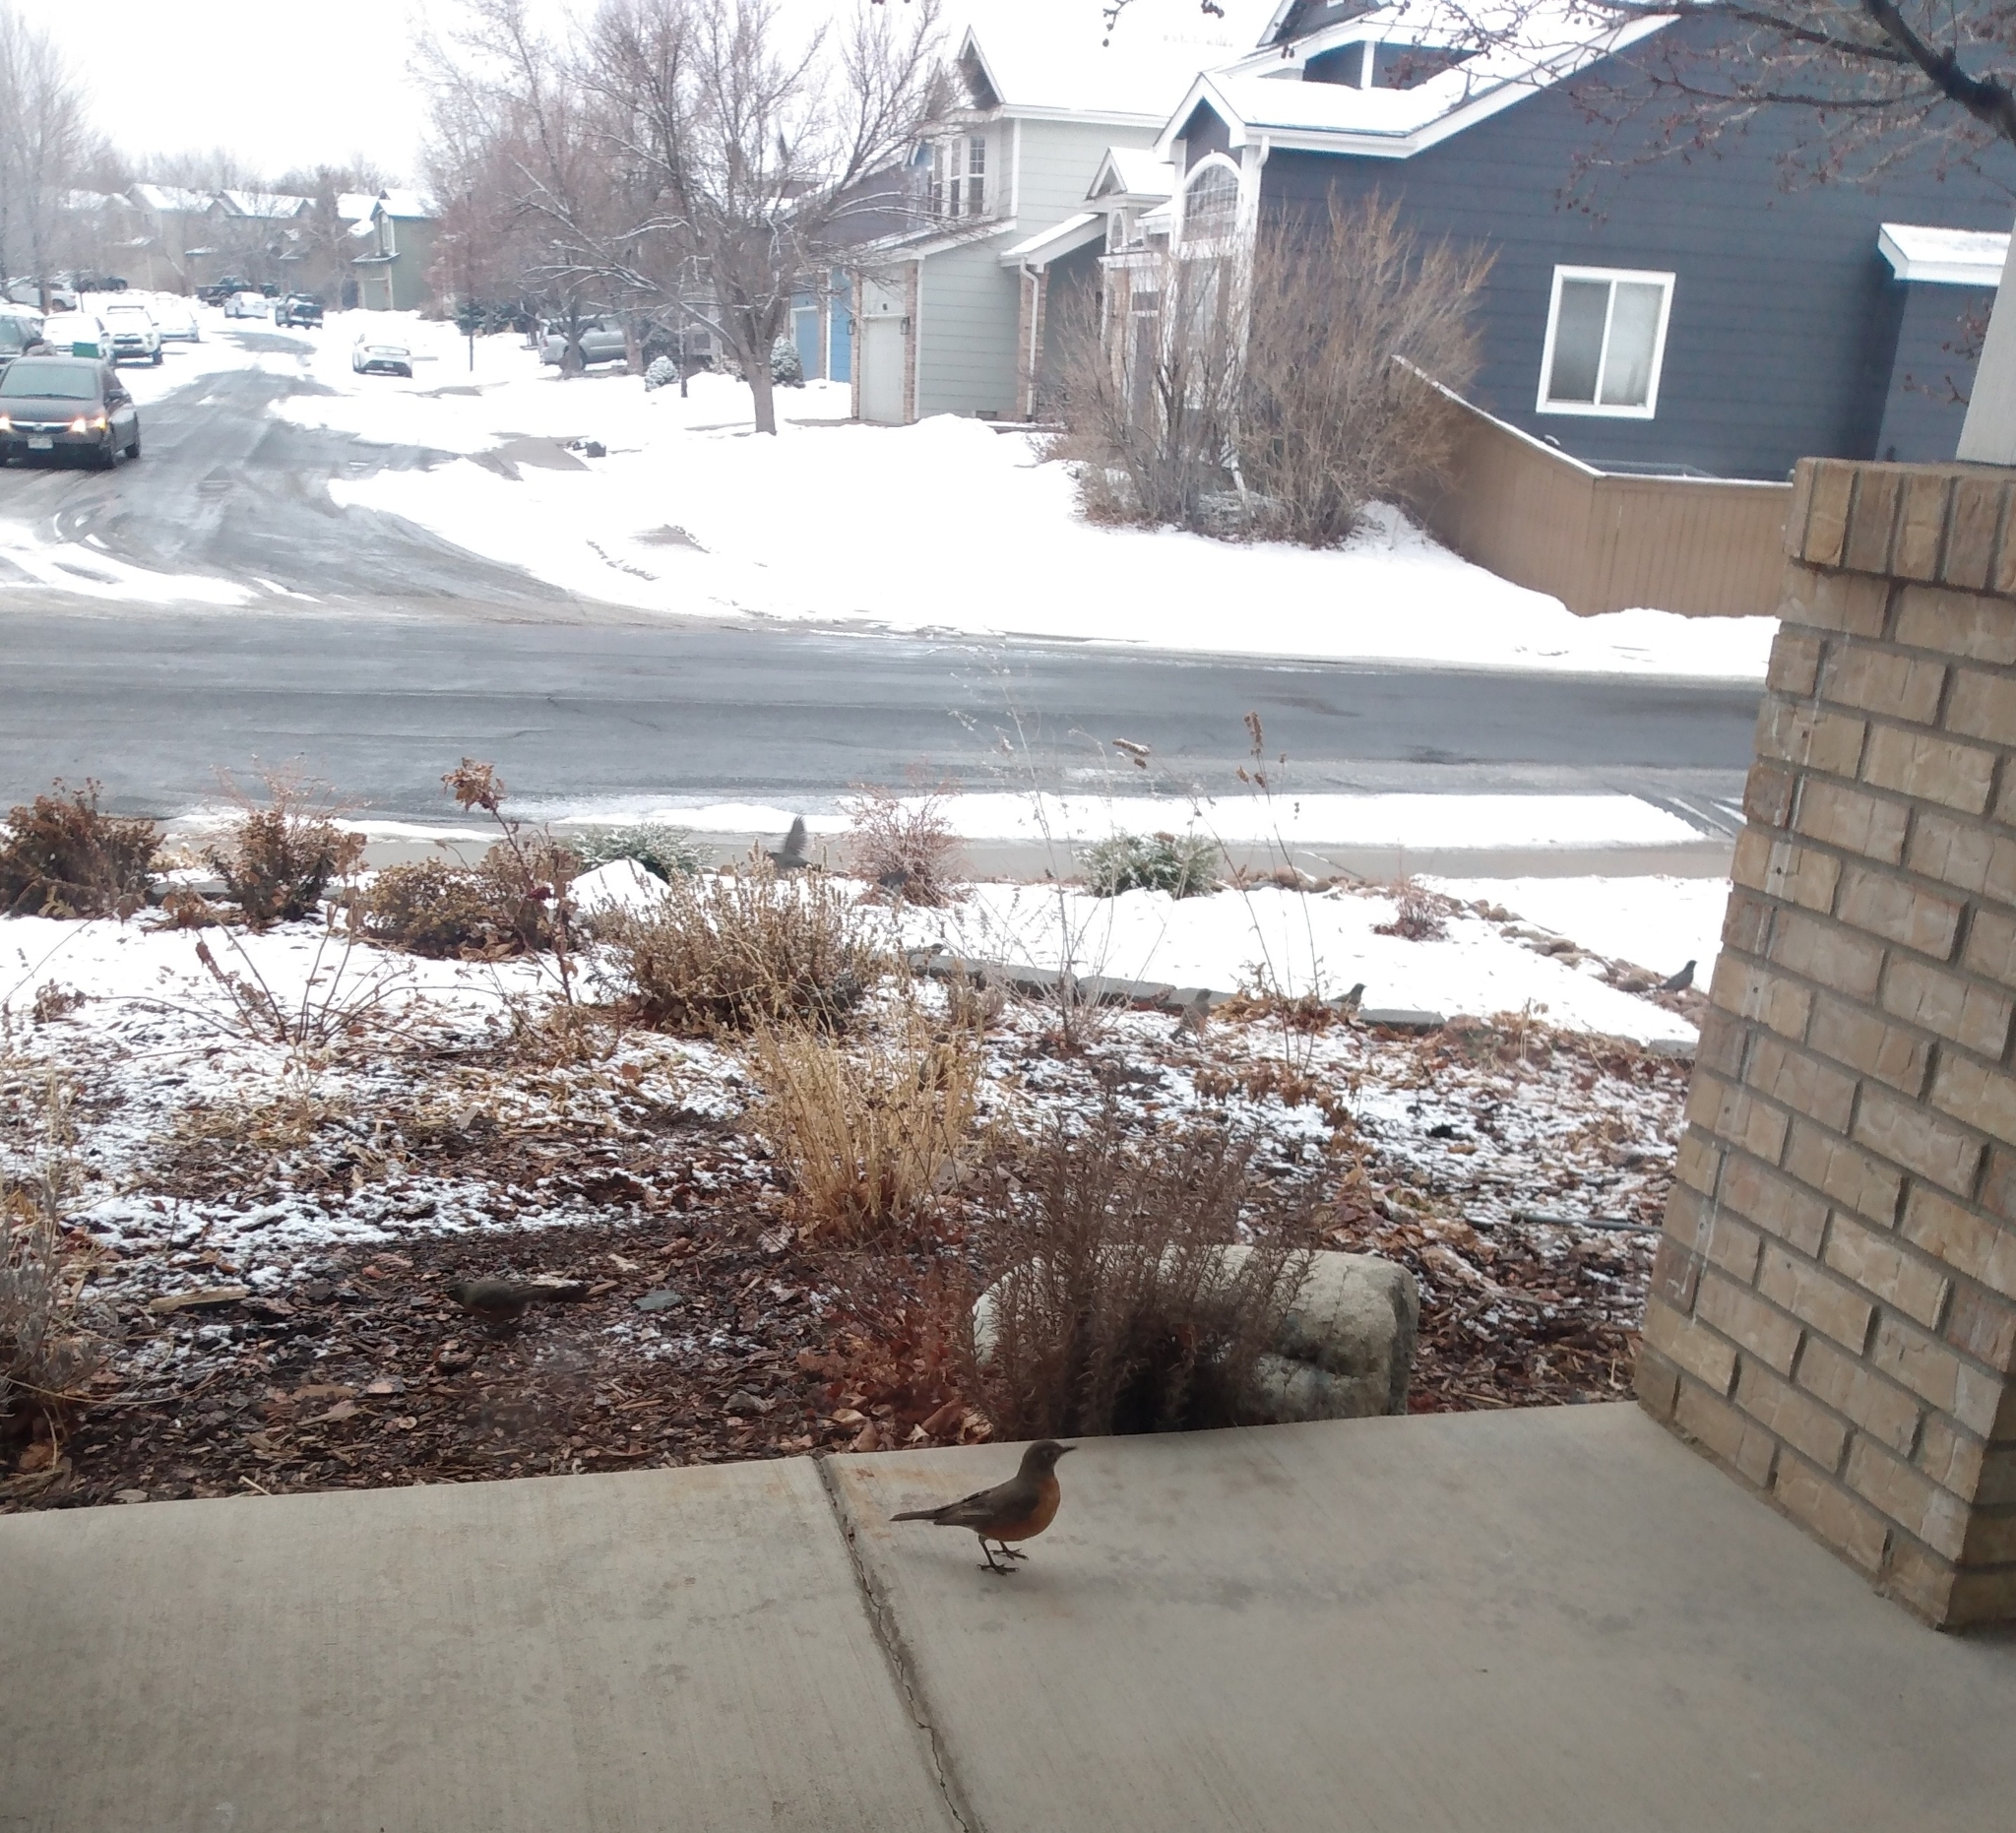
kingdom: Animalia
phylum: Chordata
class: Aves
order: Passeriformes
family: Turdidae
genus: Turdus
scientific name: Turdus migratorius
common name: American robin
